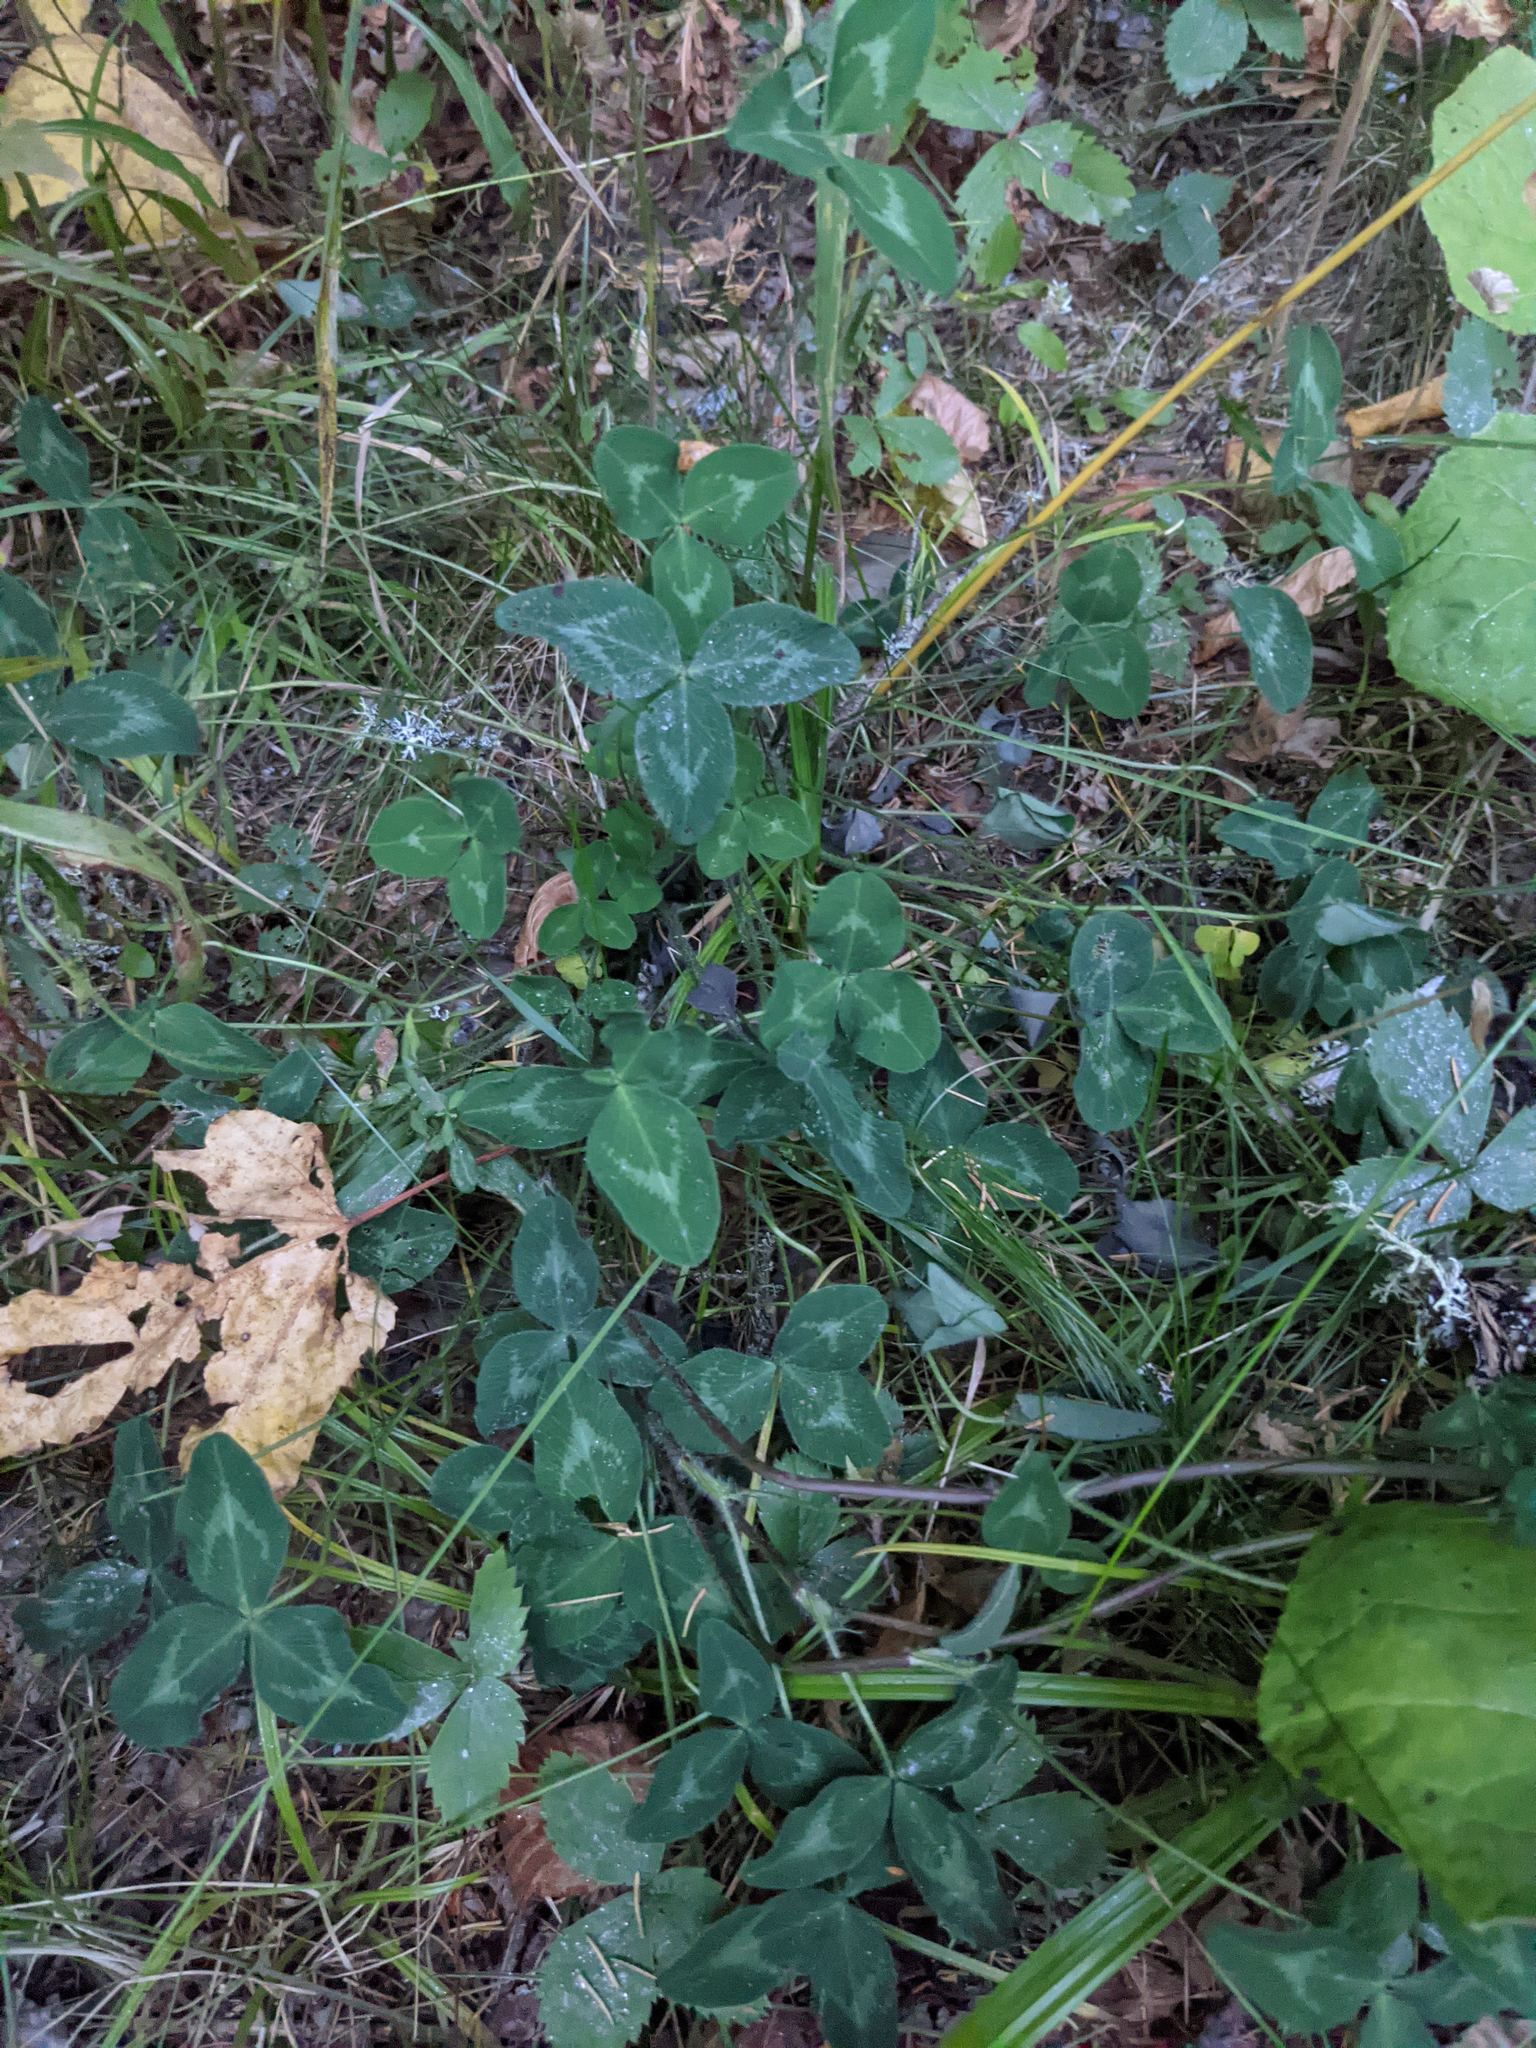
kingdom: Plantae
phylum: Tracheophyta
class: Magnoliopsida
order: Fabales
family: Fabaceae
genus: Trifolium
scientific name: Trifolium pratense
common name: Red clover
